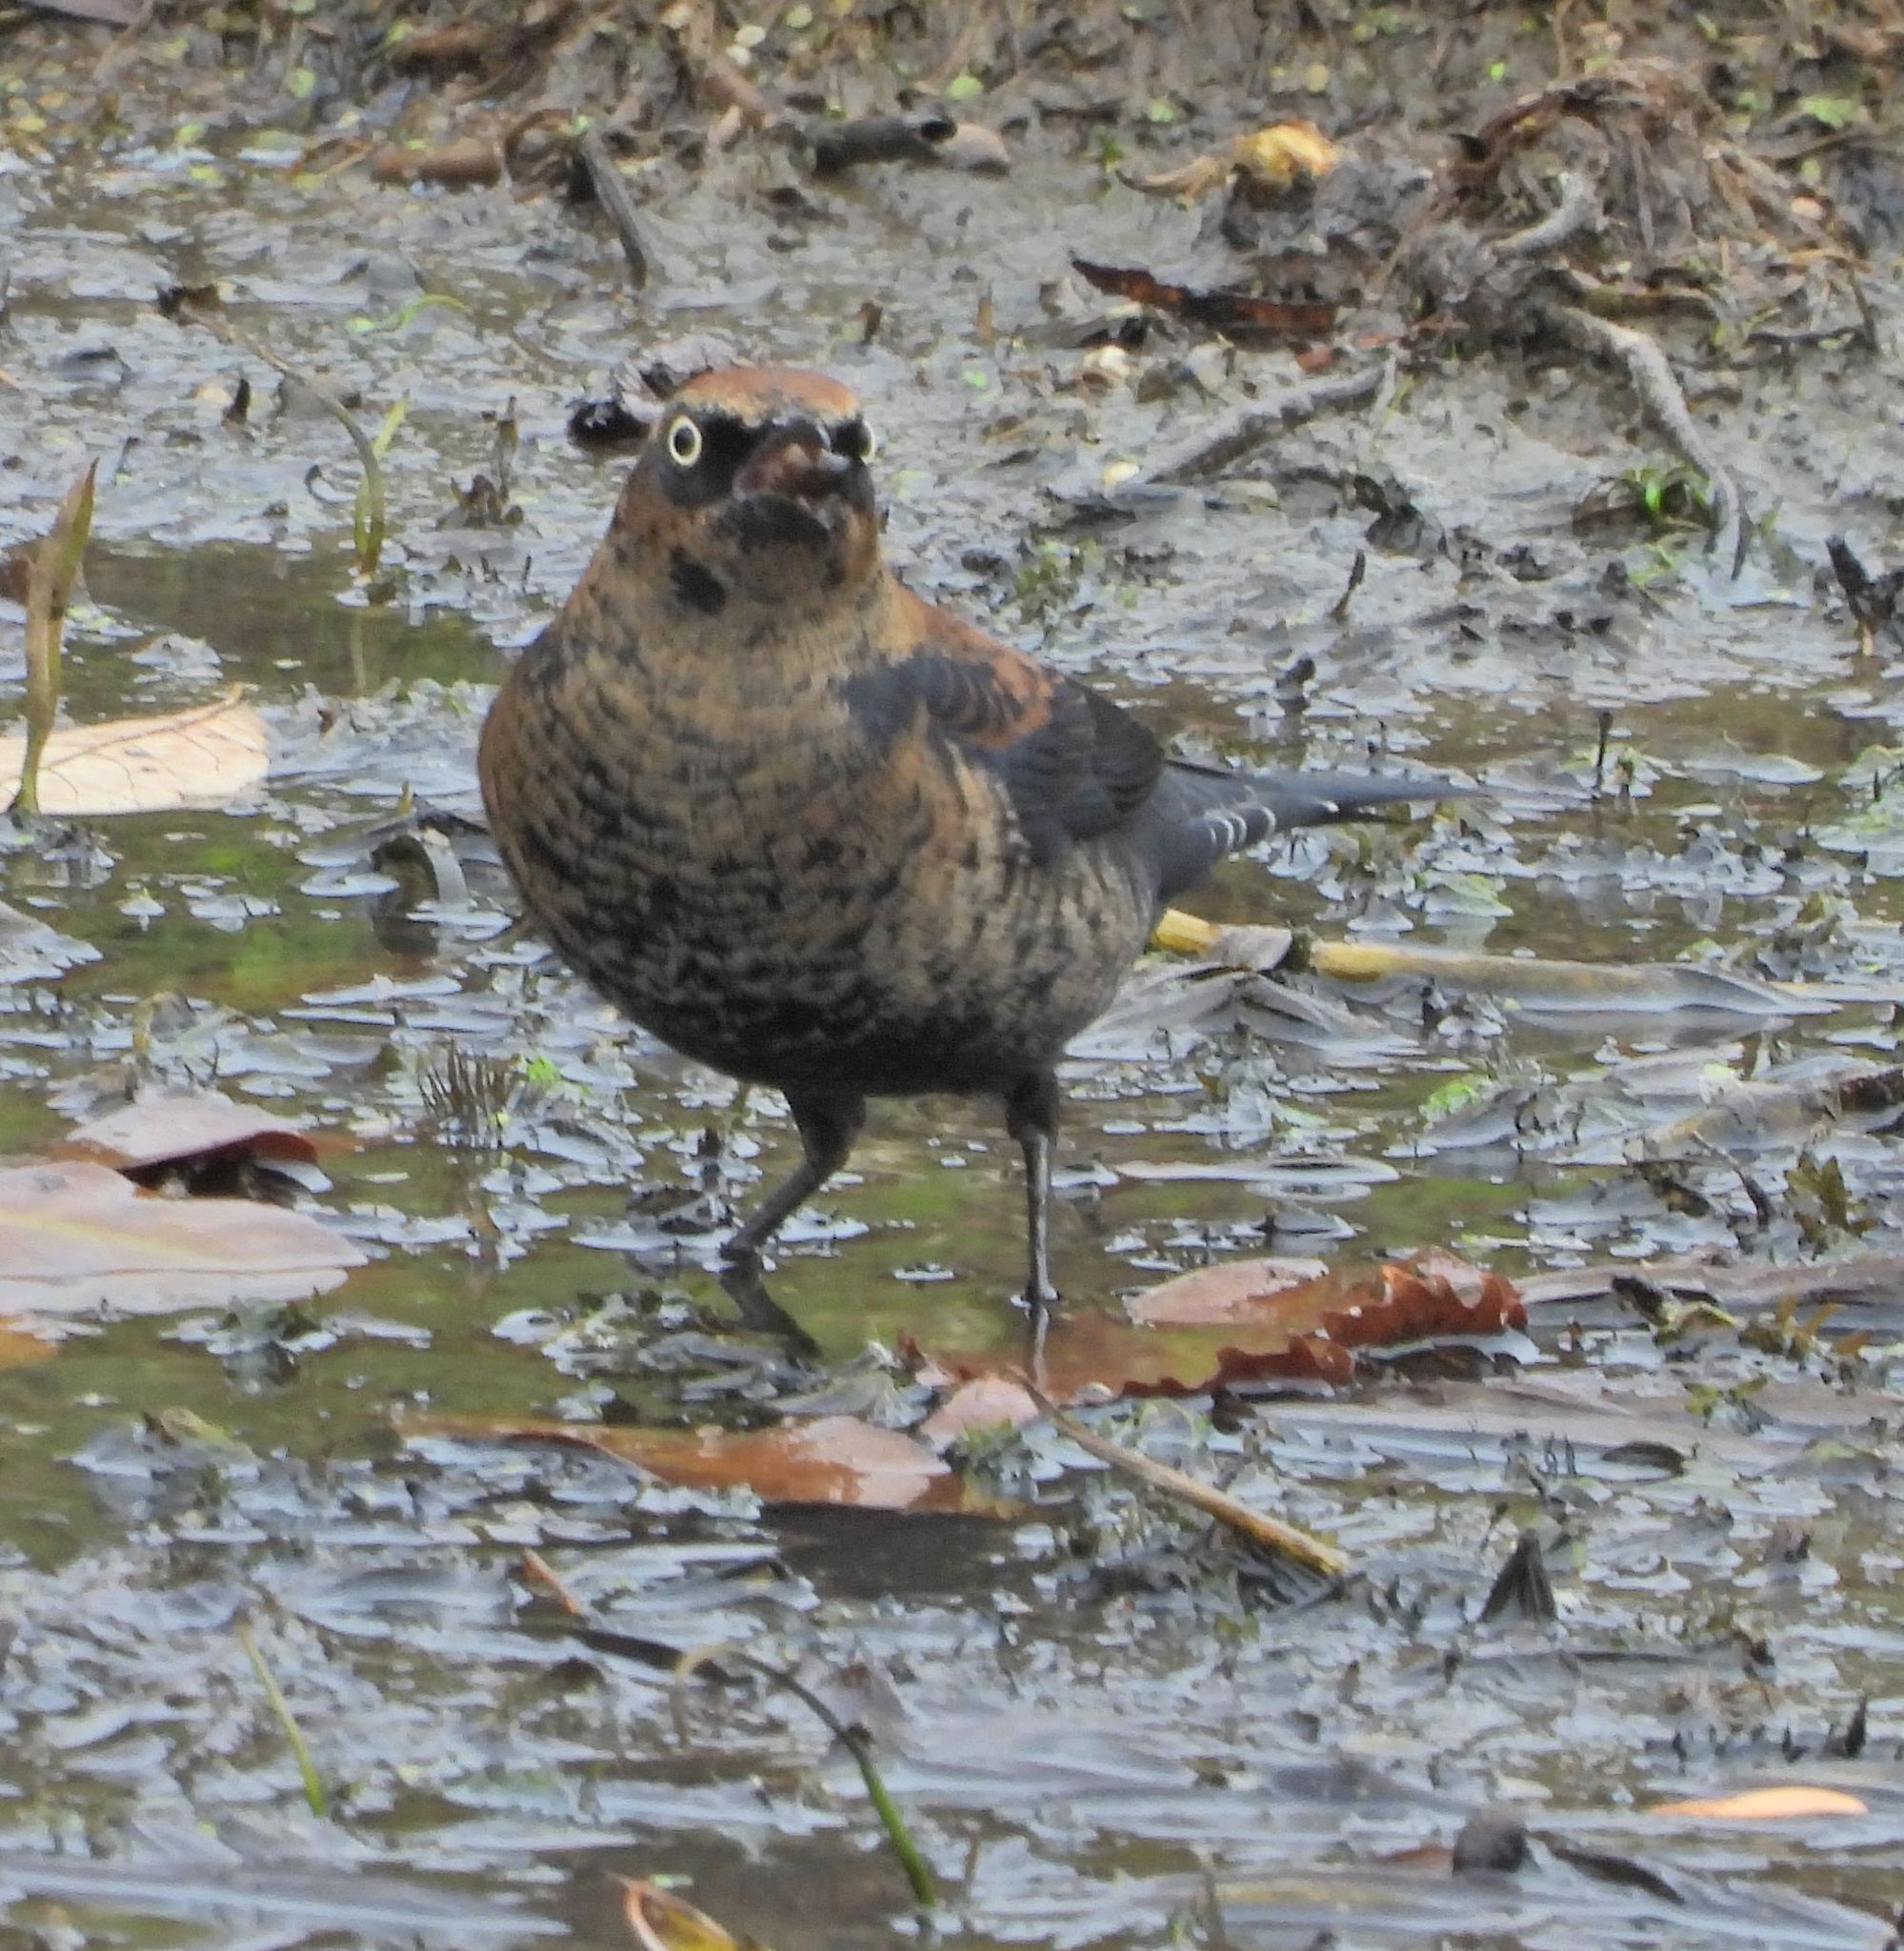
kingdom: Animalia
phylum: Chordata
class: Aves
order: Passeriformes
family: Icteridae
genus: Euphagus
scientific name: Euphagus carolinus
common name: Rusty blackbird
